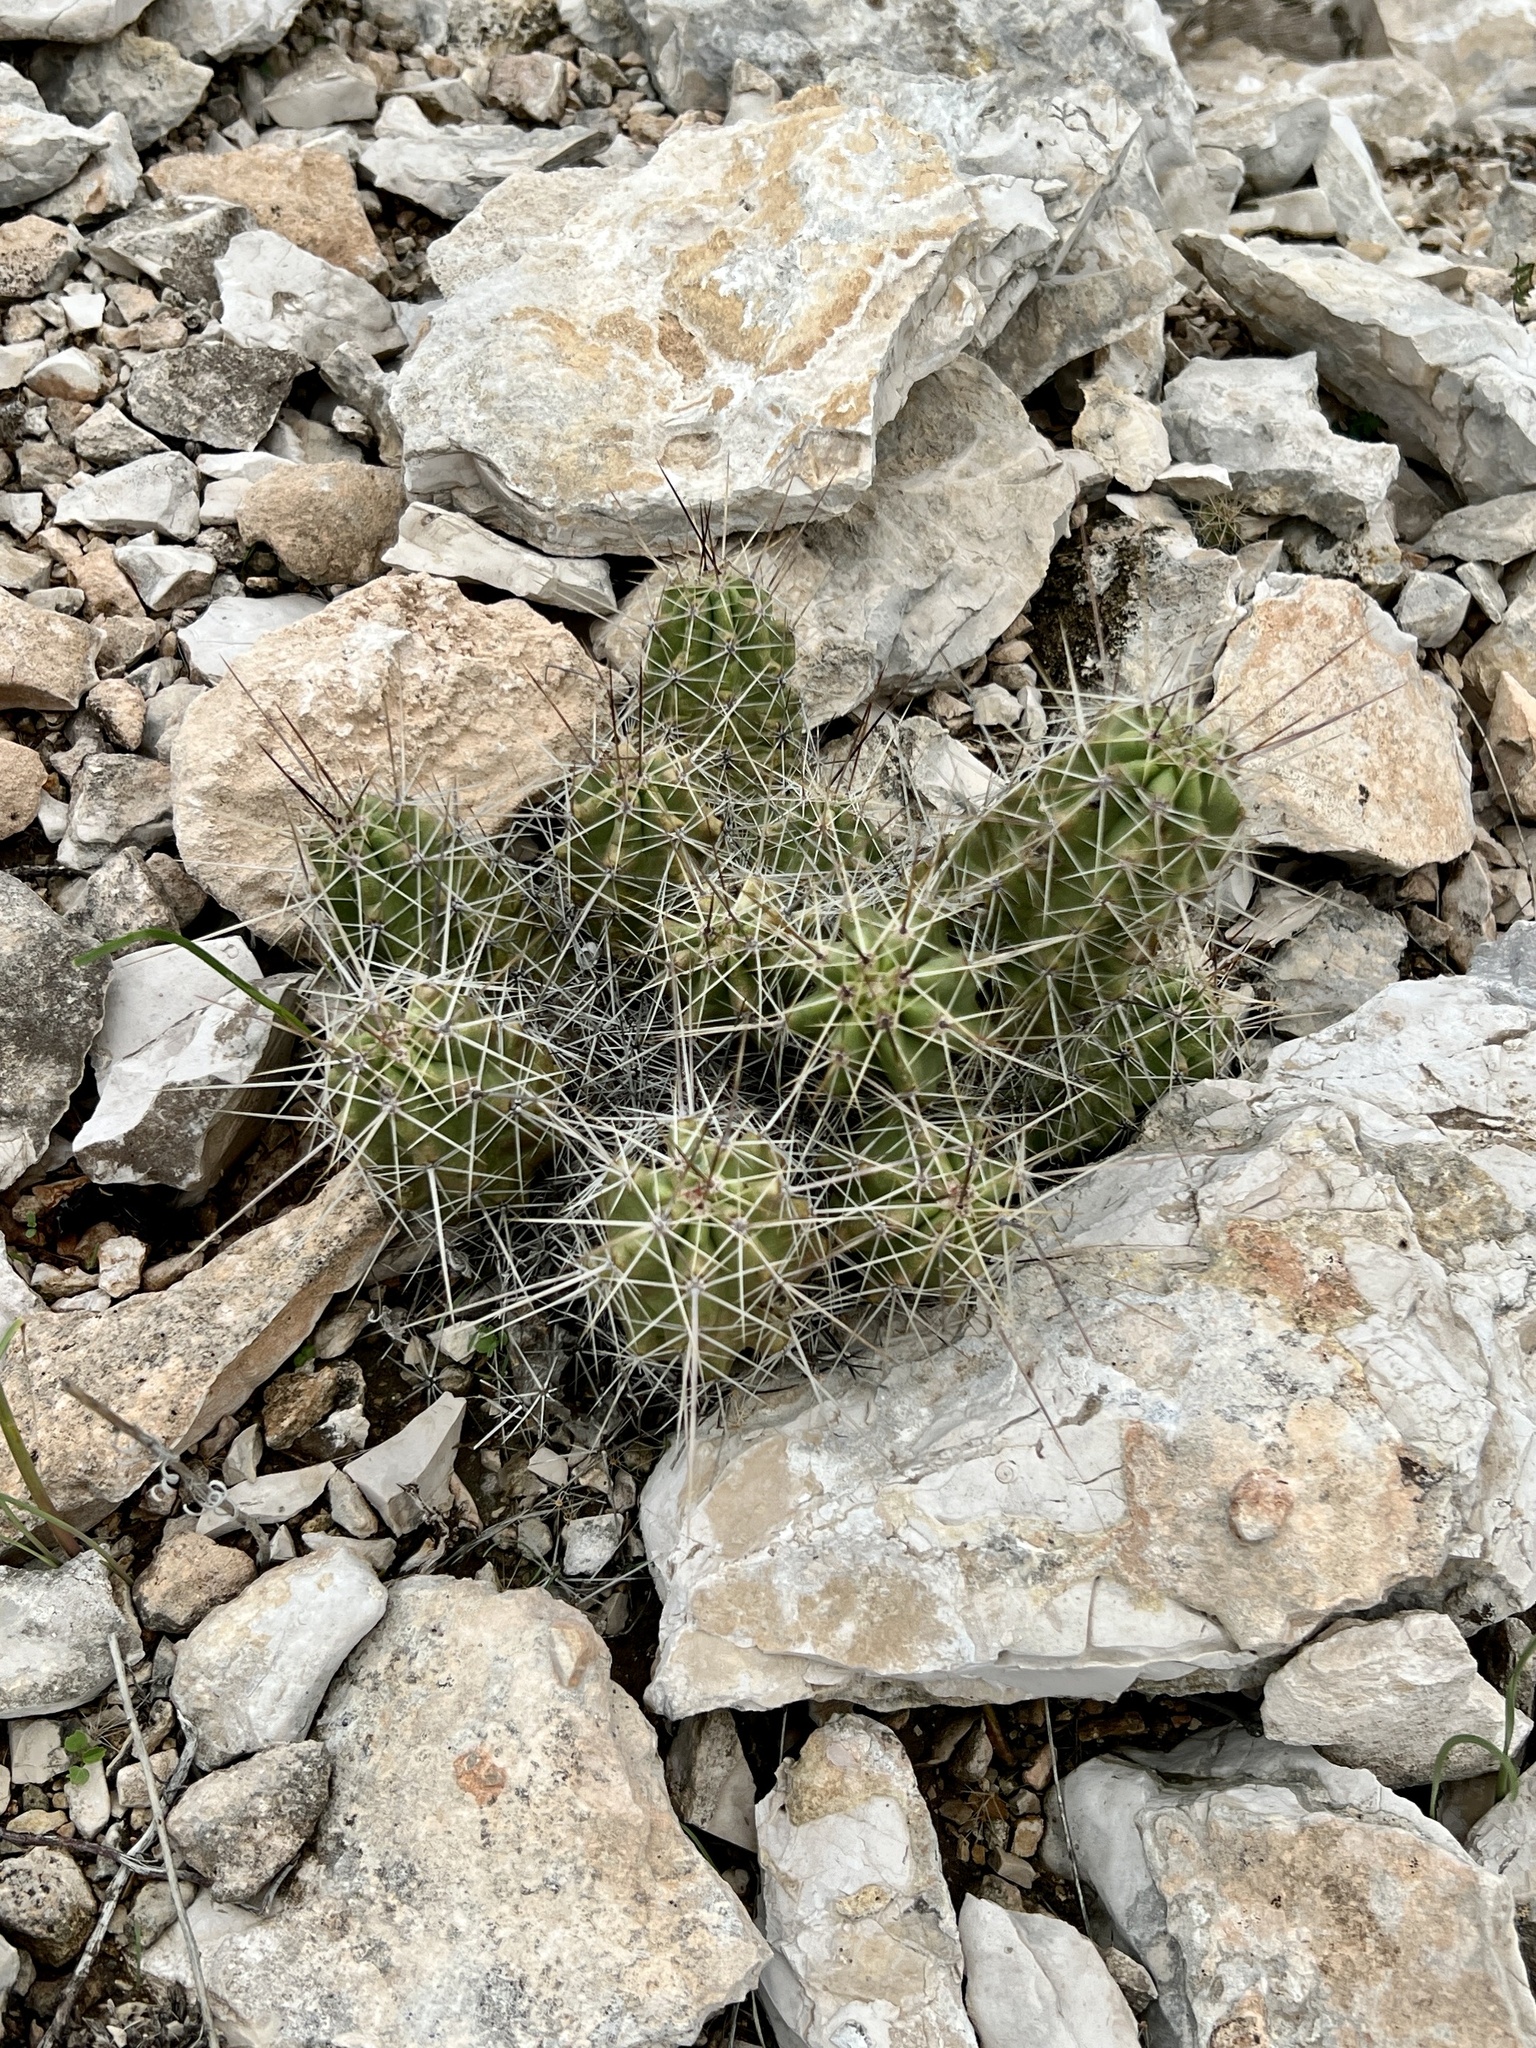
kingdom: Plantae
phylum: Tracheophyta
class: Magnoliopsida
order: Caryophyllales
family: Cactaceae
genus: Echinocereus
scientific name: Echinocereus enneacanthus
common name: Pitaya
